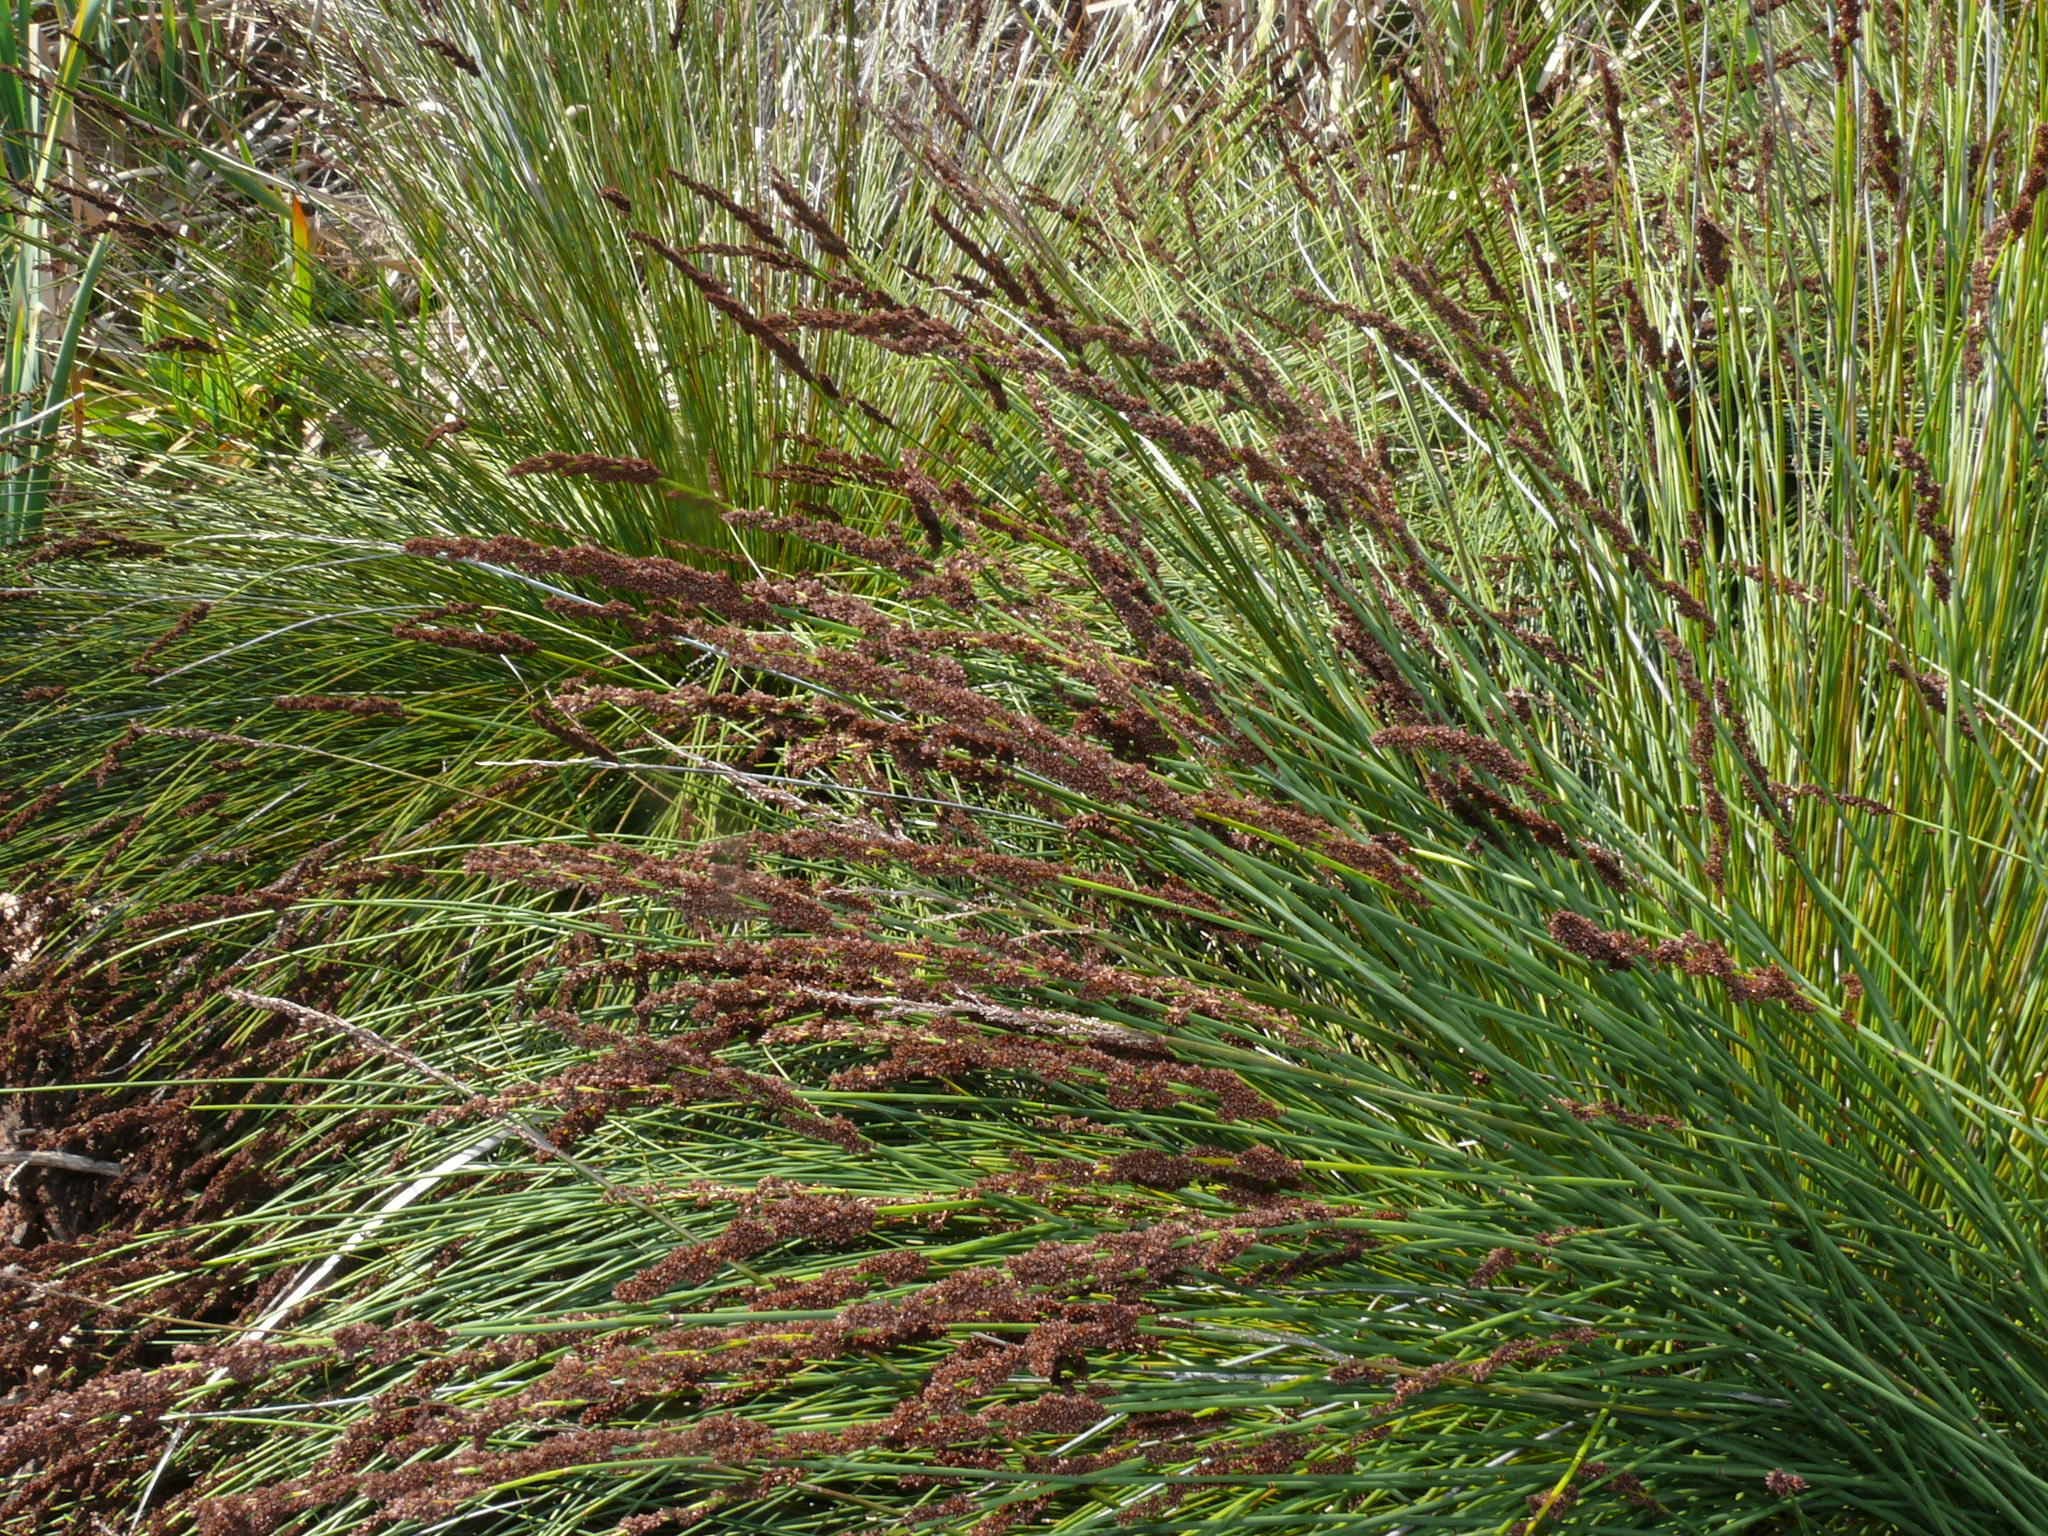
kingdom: Plantae
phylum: Tracheophyta
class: Liliopsida
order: Poales
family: Restionaceae
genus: Elegia
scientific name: Elegia tectorum
